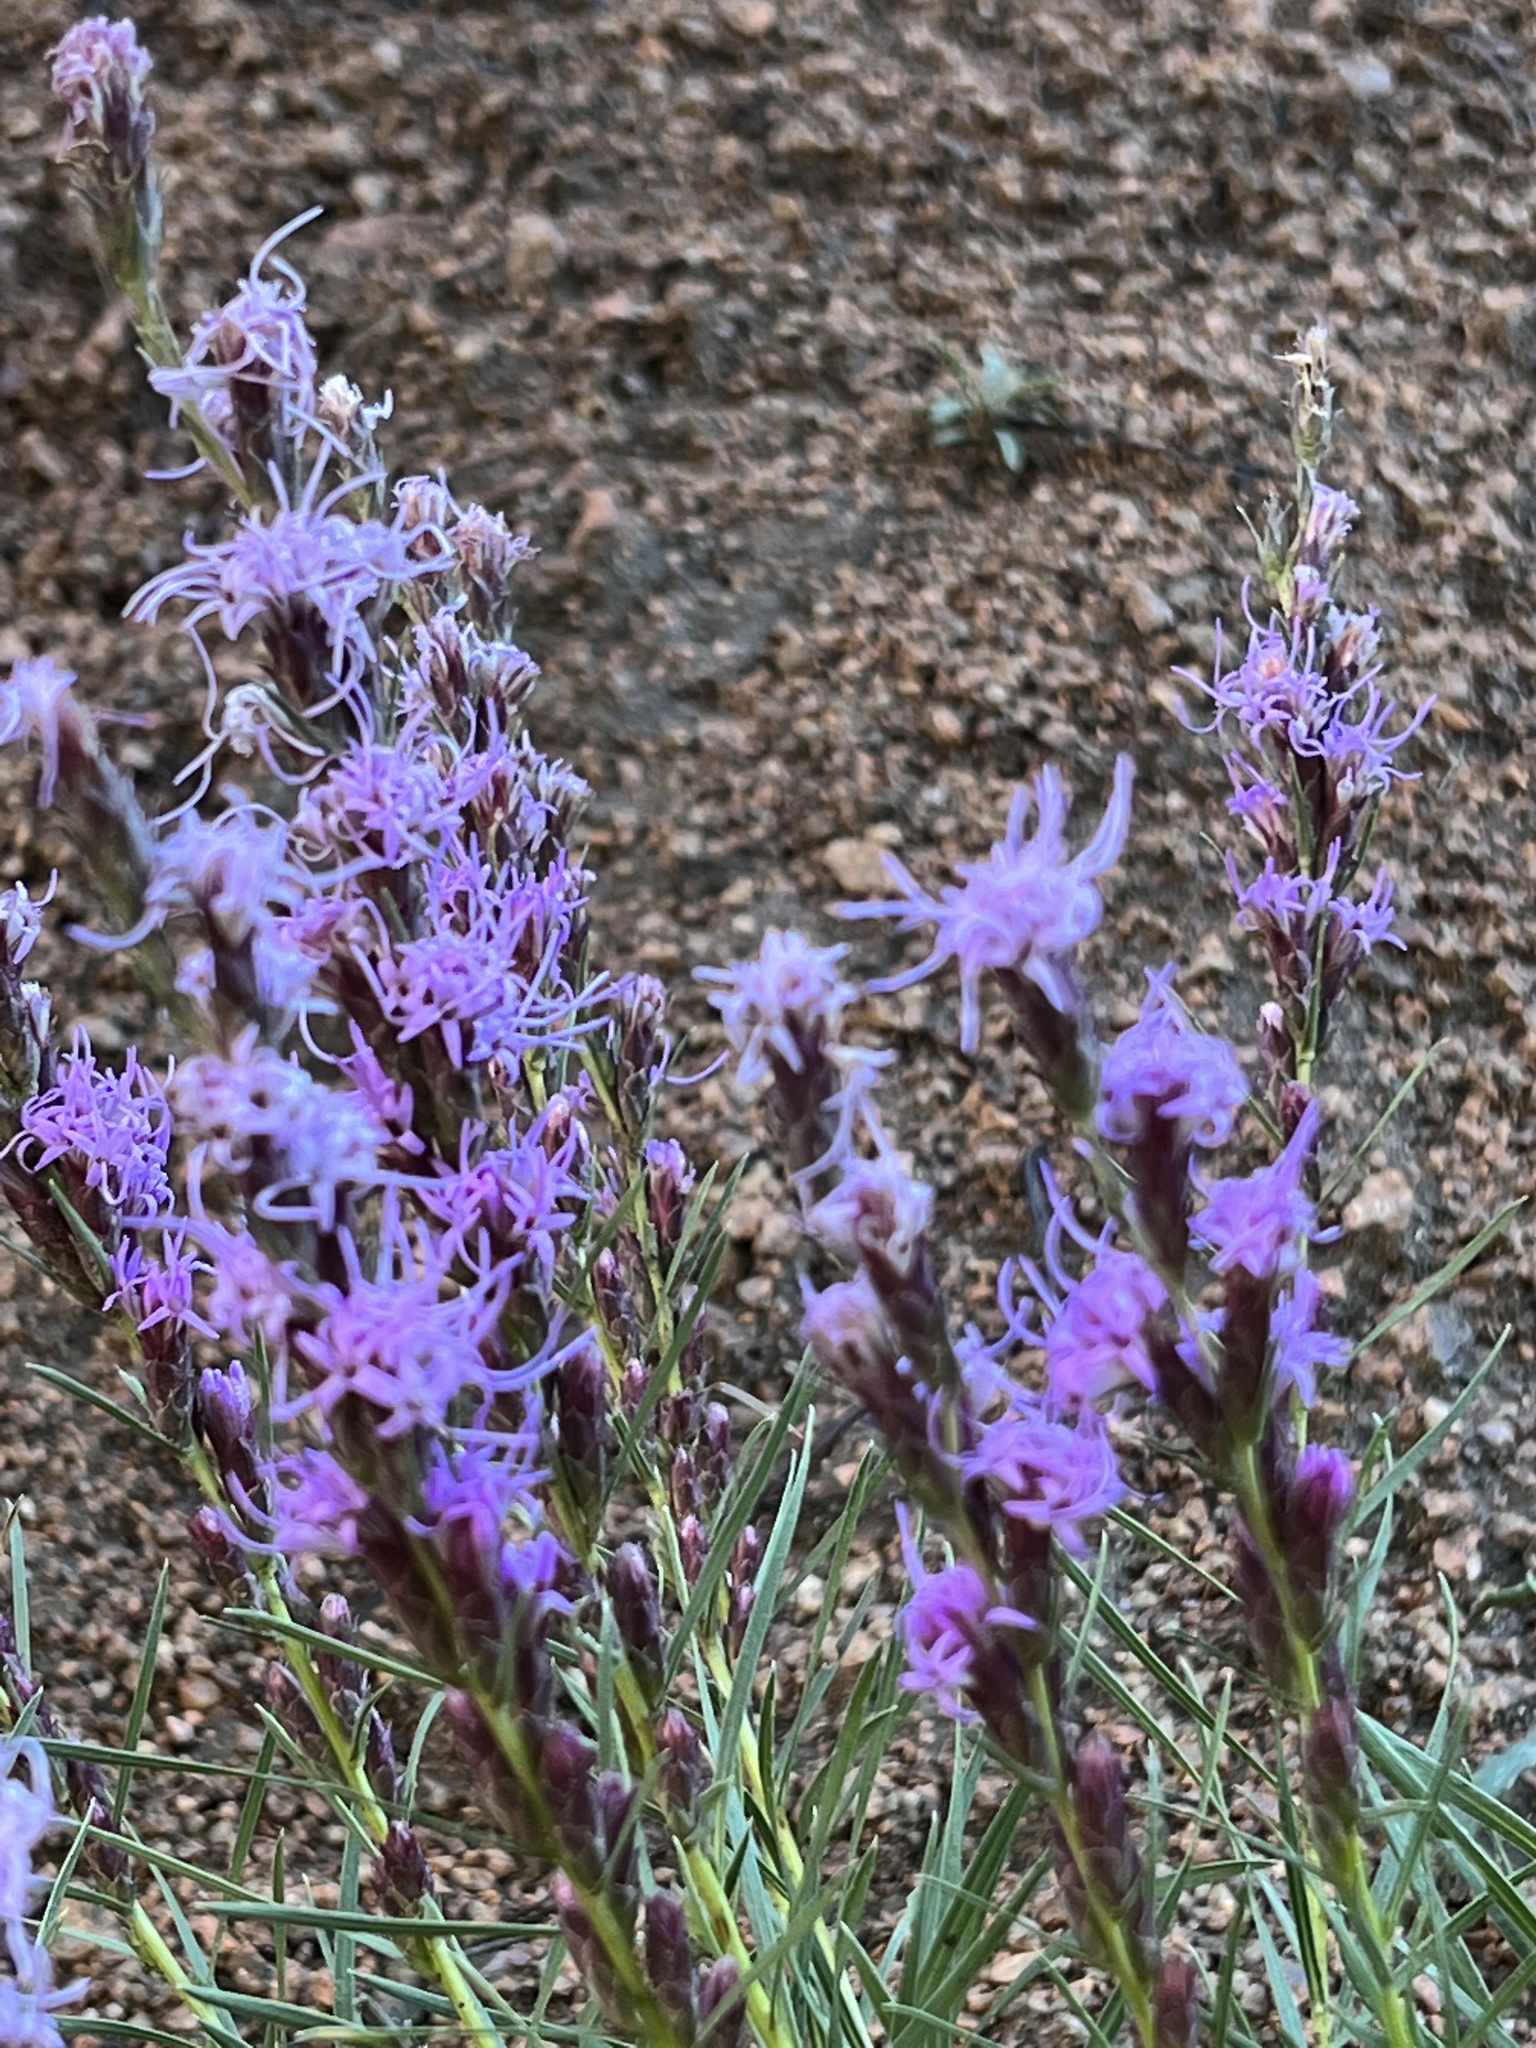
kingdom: Plantae
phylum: Tracheophyta
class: Magnoliopsida
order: Asterales
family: Asteraceae
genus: Liatris
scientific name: Liatris punctata
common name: Dotted gayfeather
